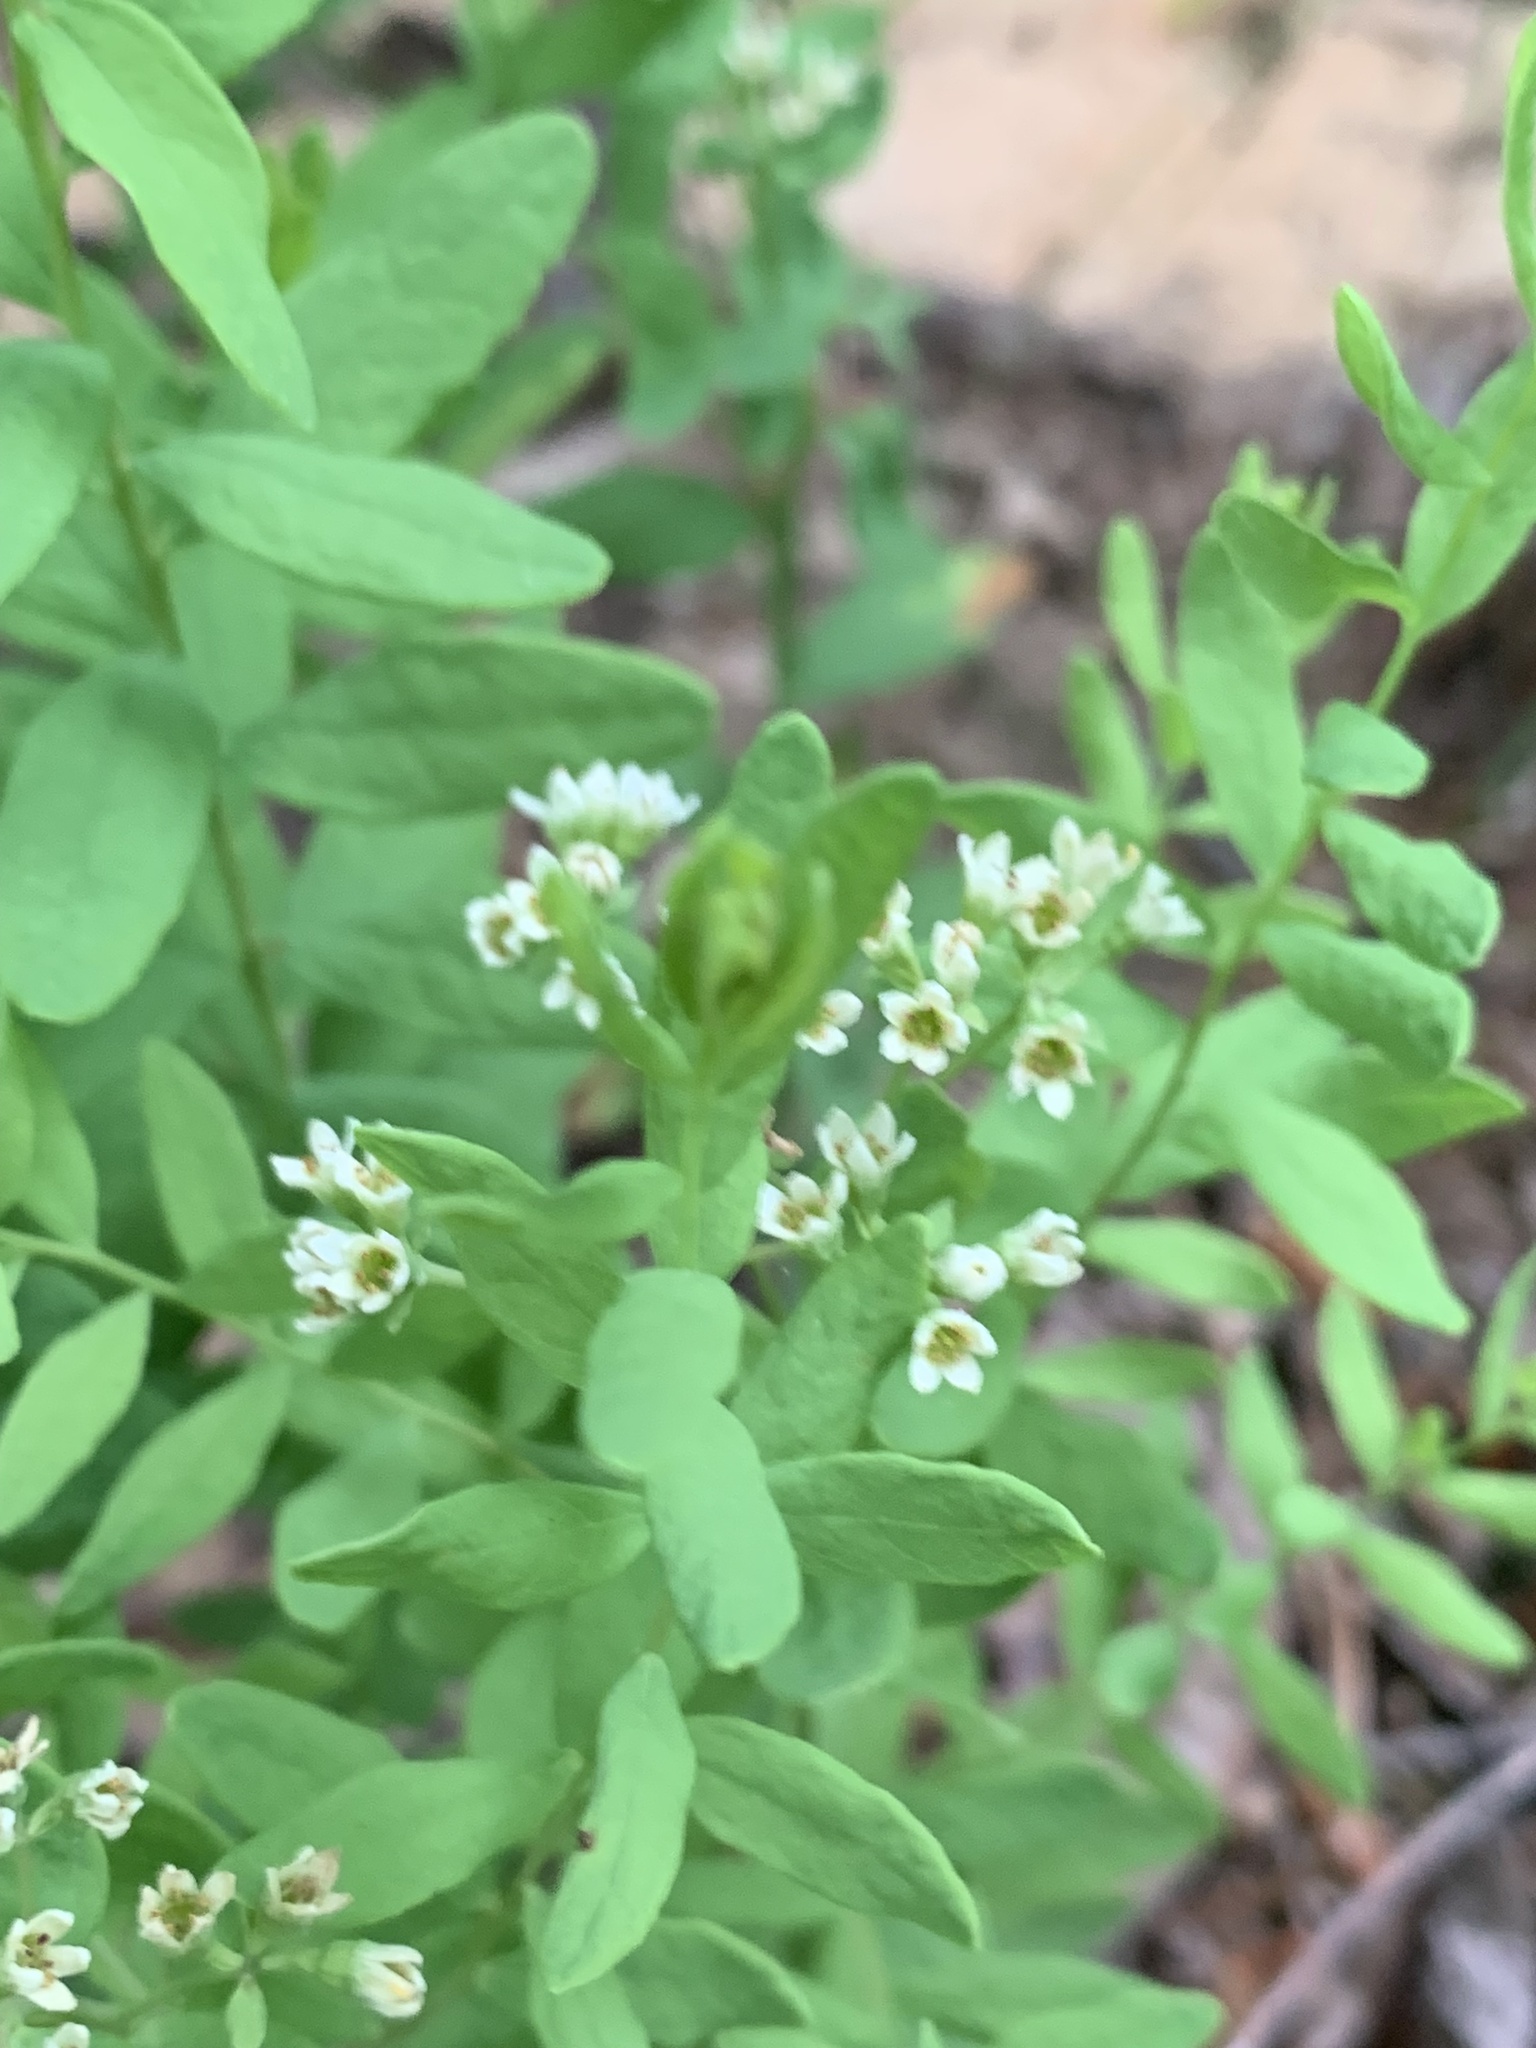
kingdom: Plantae
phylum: Tracheophyta
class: Magnoliopsida
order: Santalales
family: Comandraceae
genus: Comandra
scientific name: Comandra umbellata
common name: Bastard toadflax
